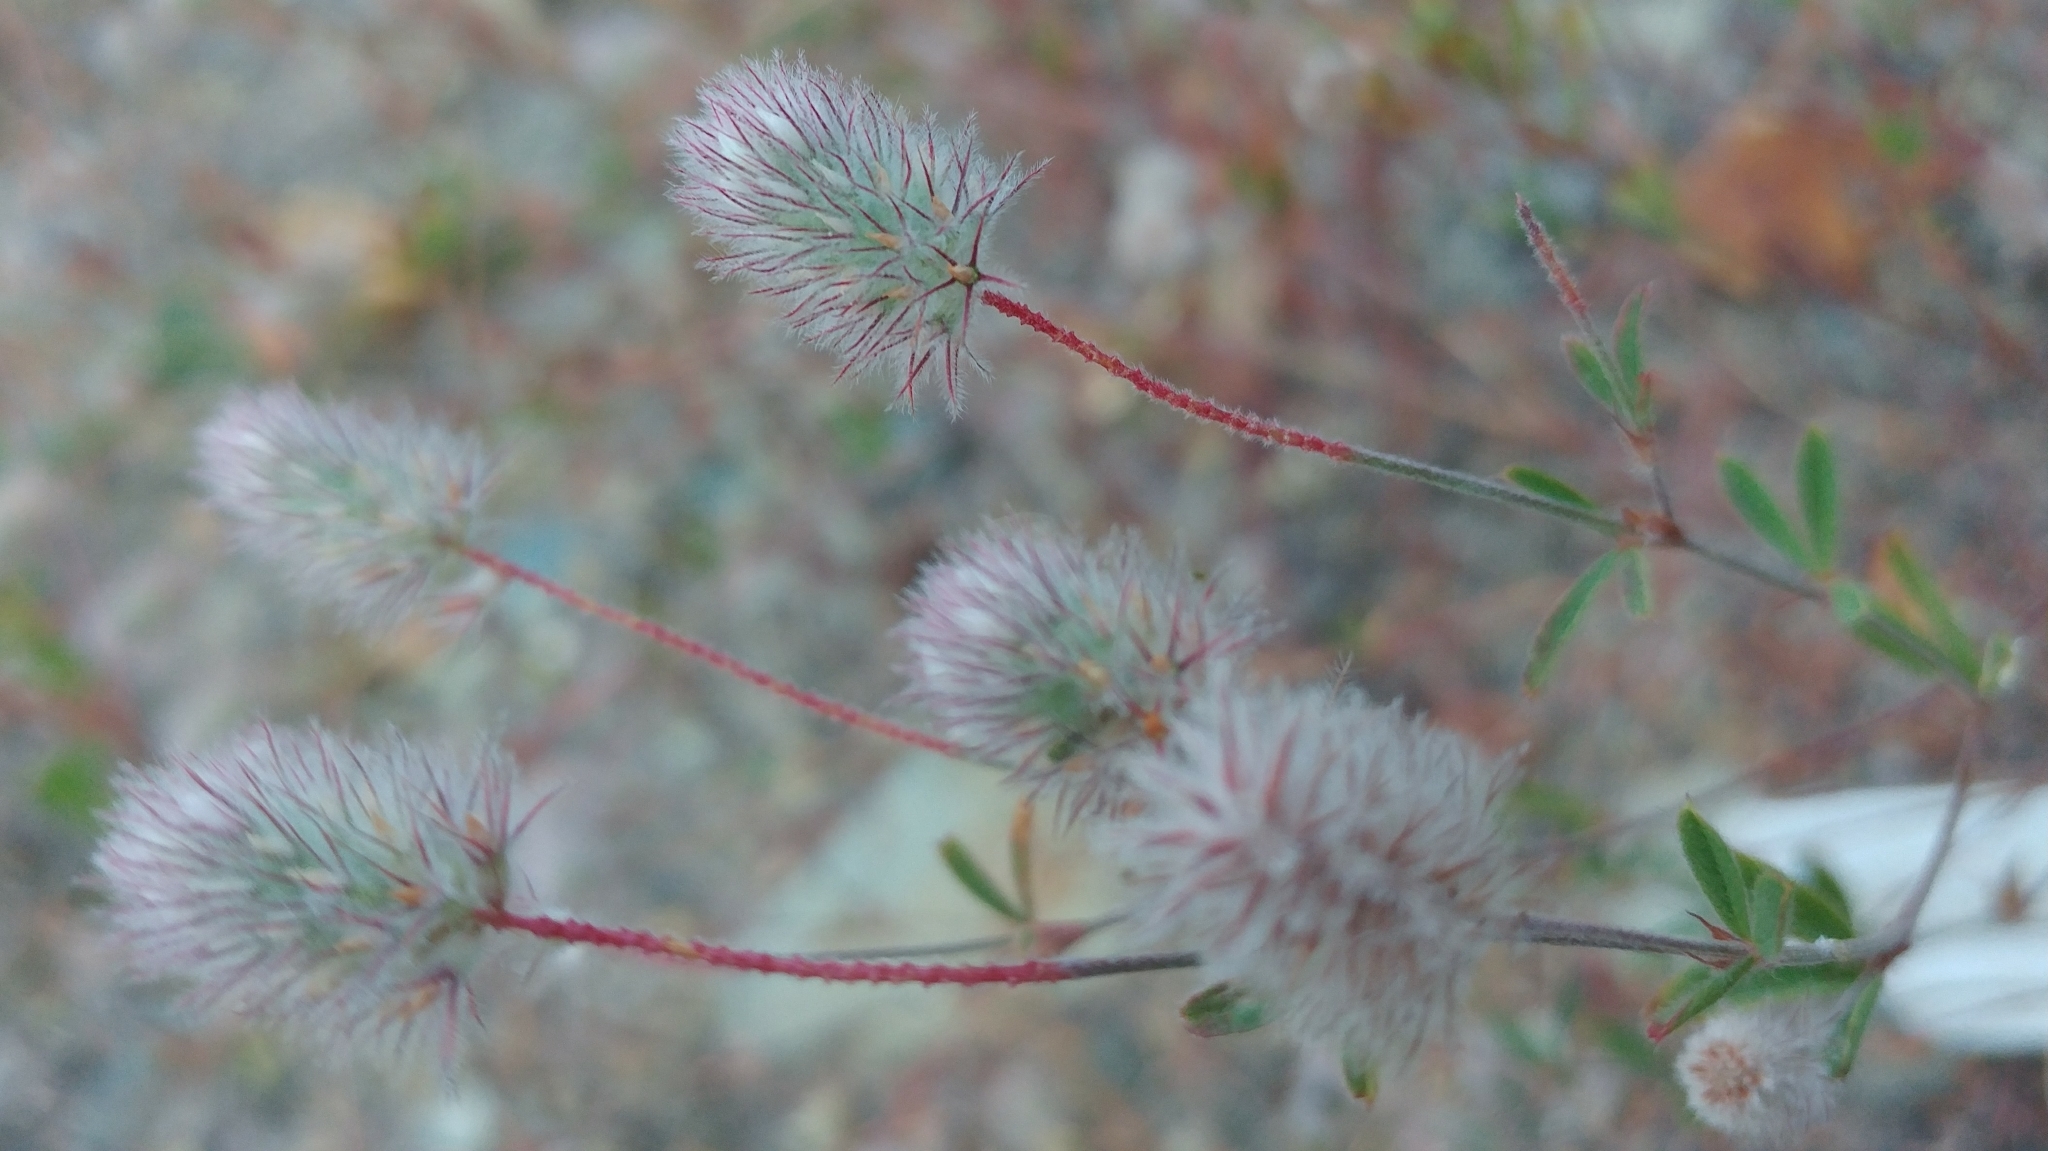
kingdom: Plantae
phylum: Tracheophyta
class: Magnoliopsida
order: Fabales
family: Fabaceae
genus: Trifolium
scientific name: Trifolium arvense
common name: Hare's-foot clover
